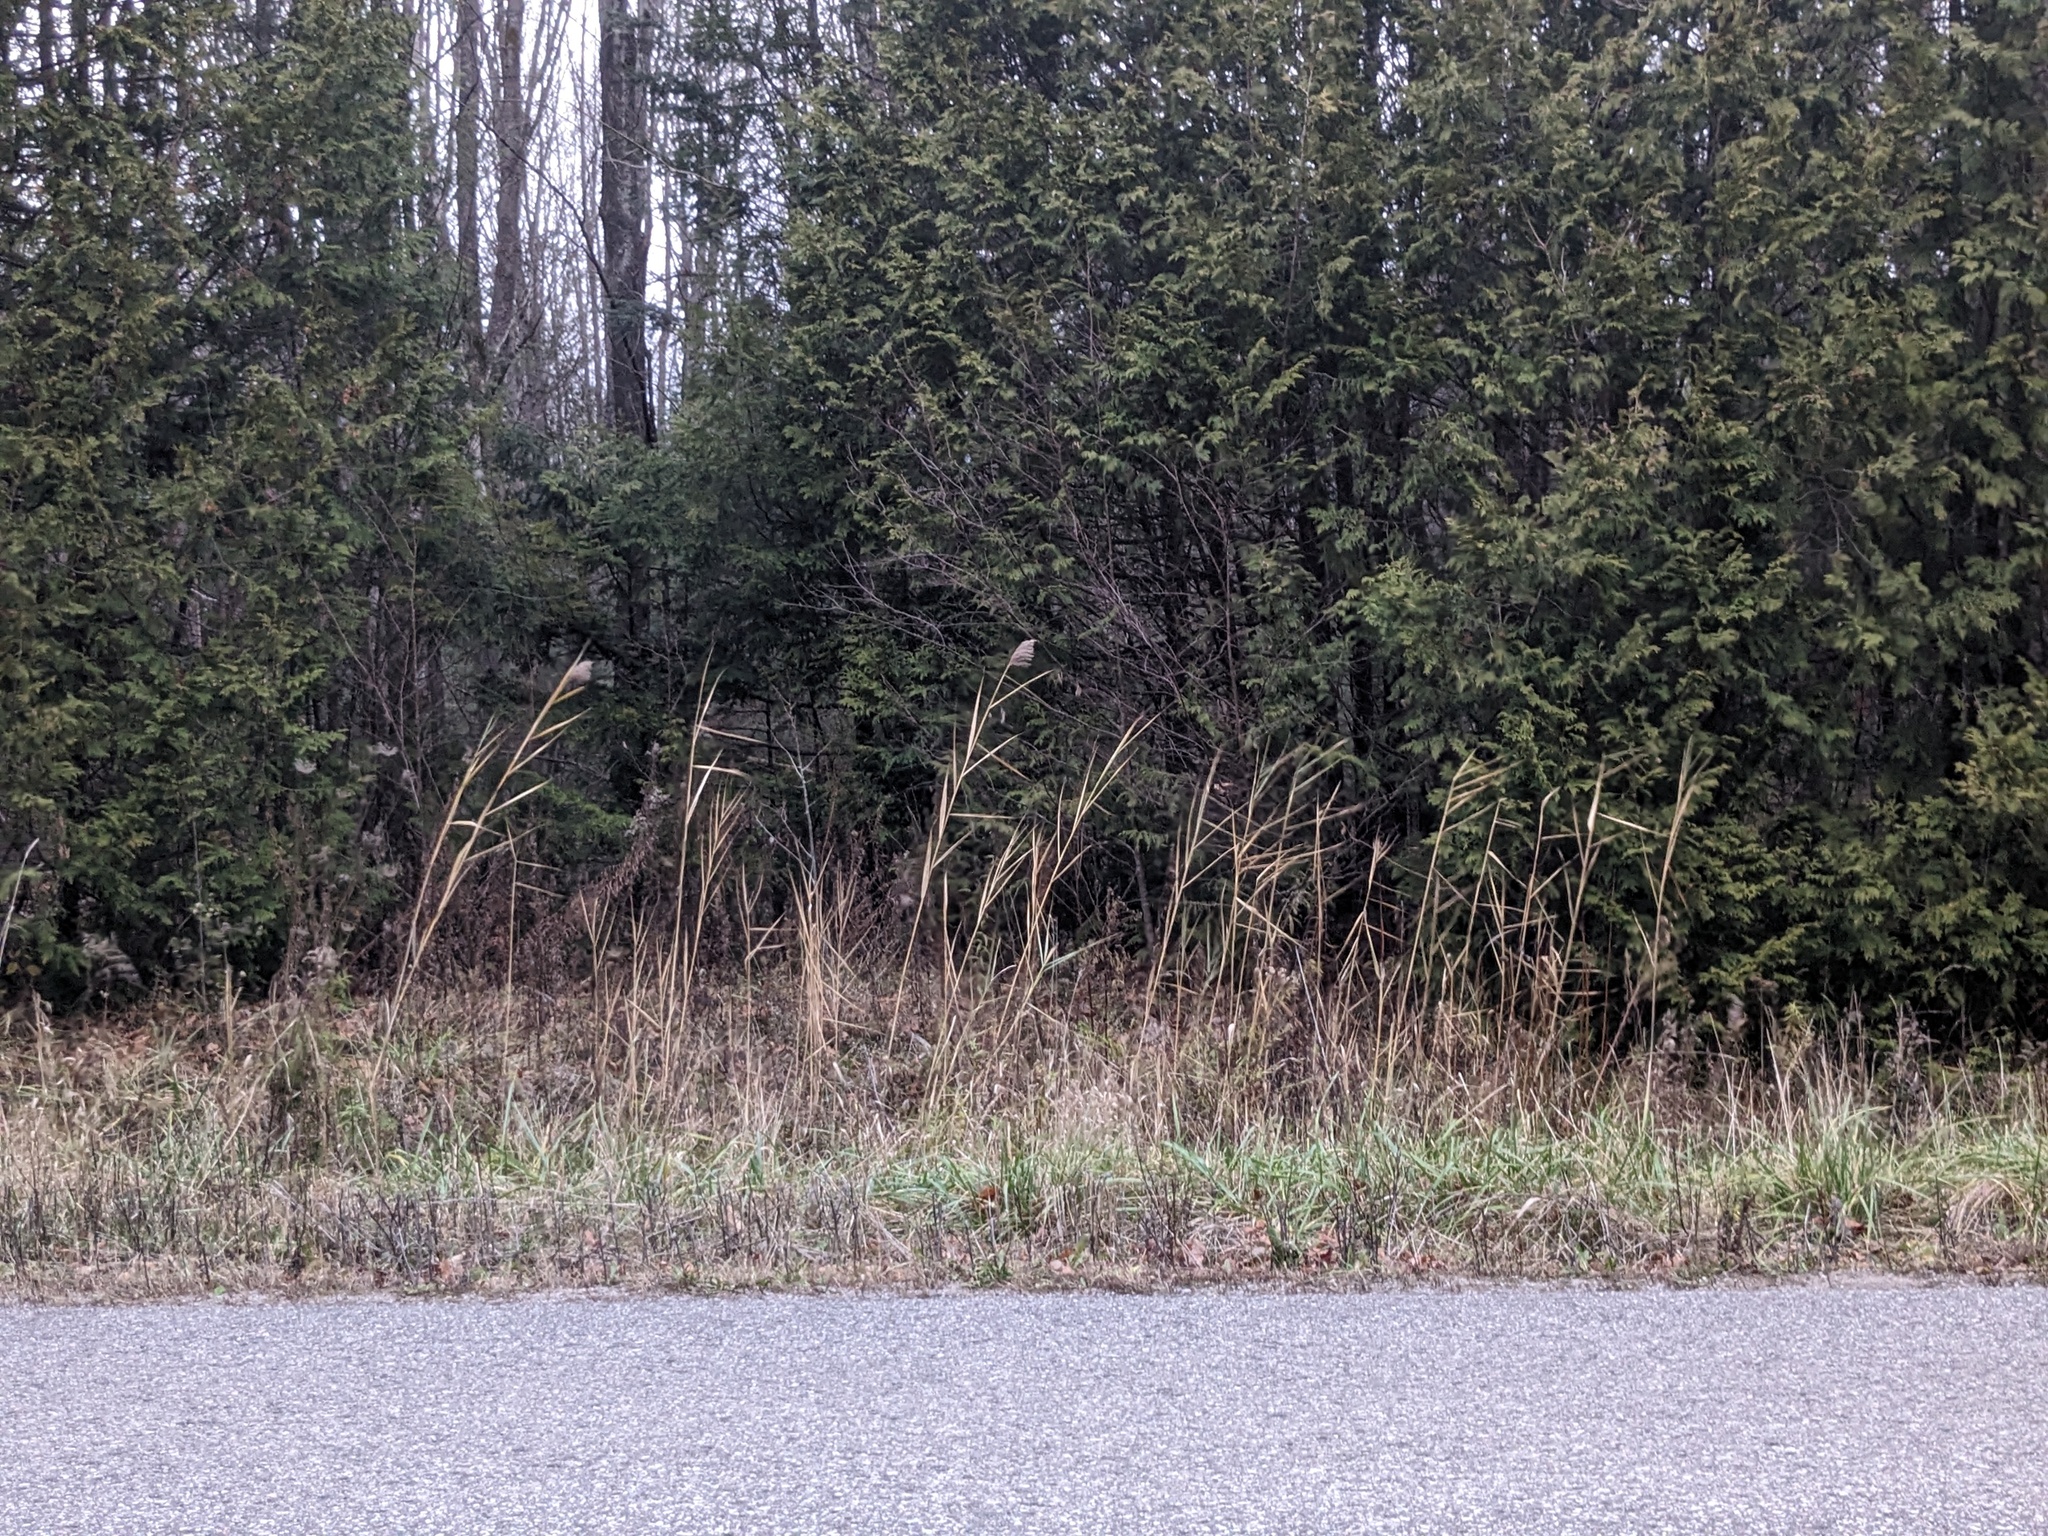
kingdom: Plantae
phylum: Tracheophyta
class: Liliopsida
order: Poales
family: Poaceae
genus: Phragmites
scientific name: Phragmites australis
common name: Common reed
